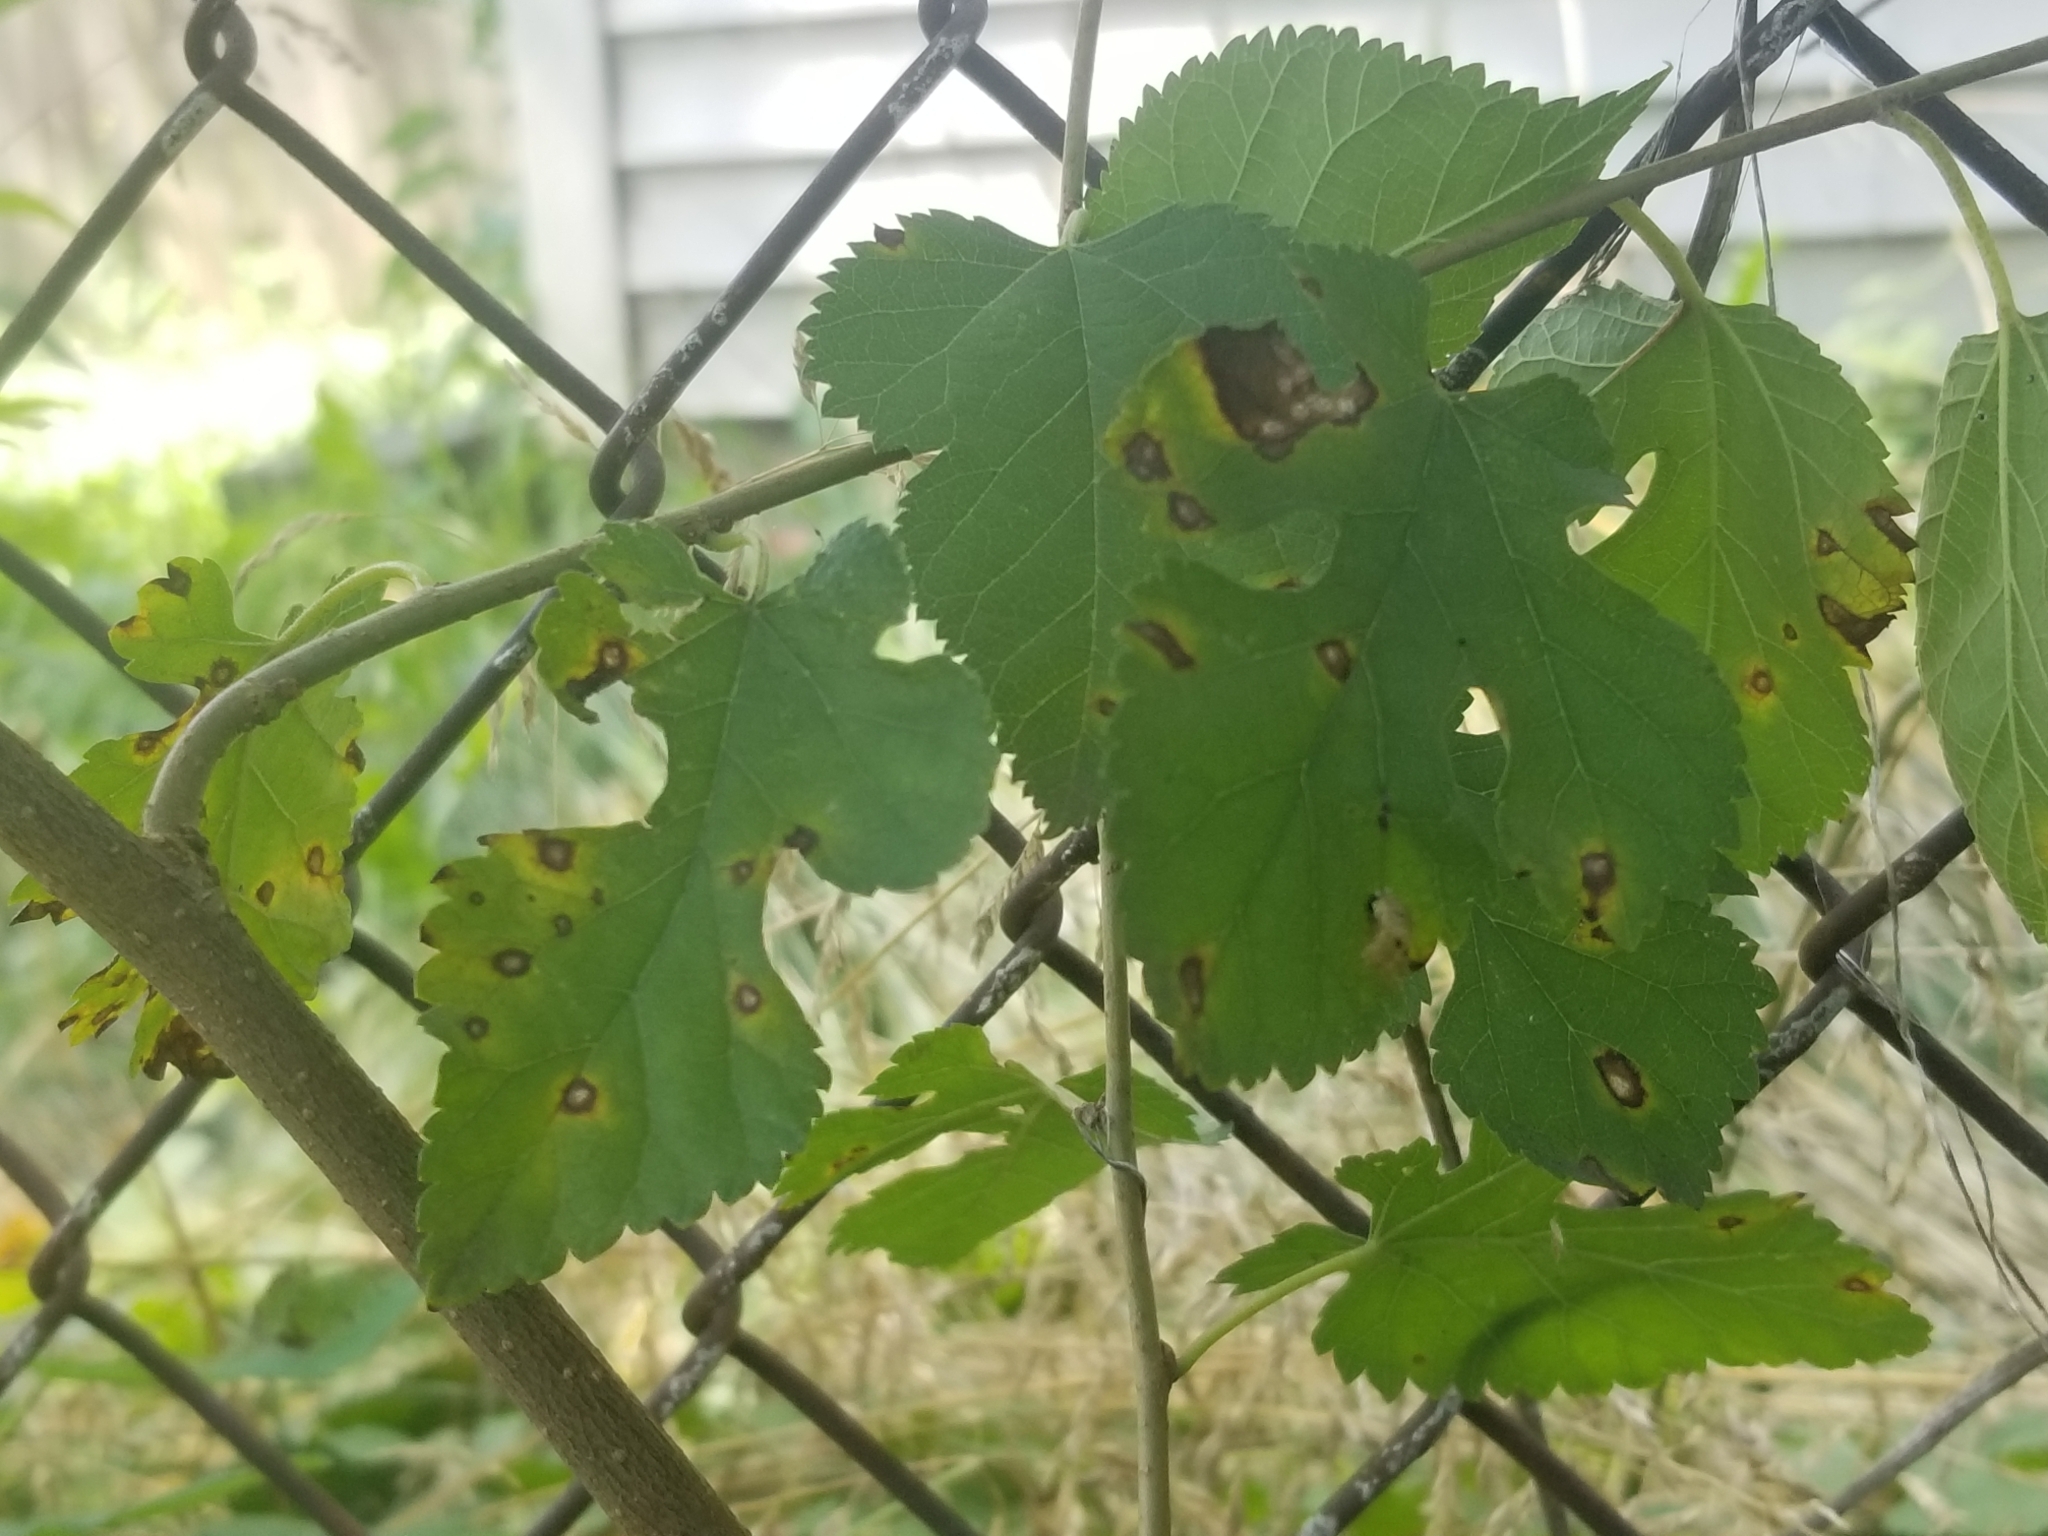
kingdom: Fungi
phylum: Ascomycota
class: Dothideomycetes
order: Mycosphaerellales
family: Mycosphaerellaceae
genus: Cercospora
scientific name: Cercospora moricola
